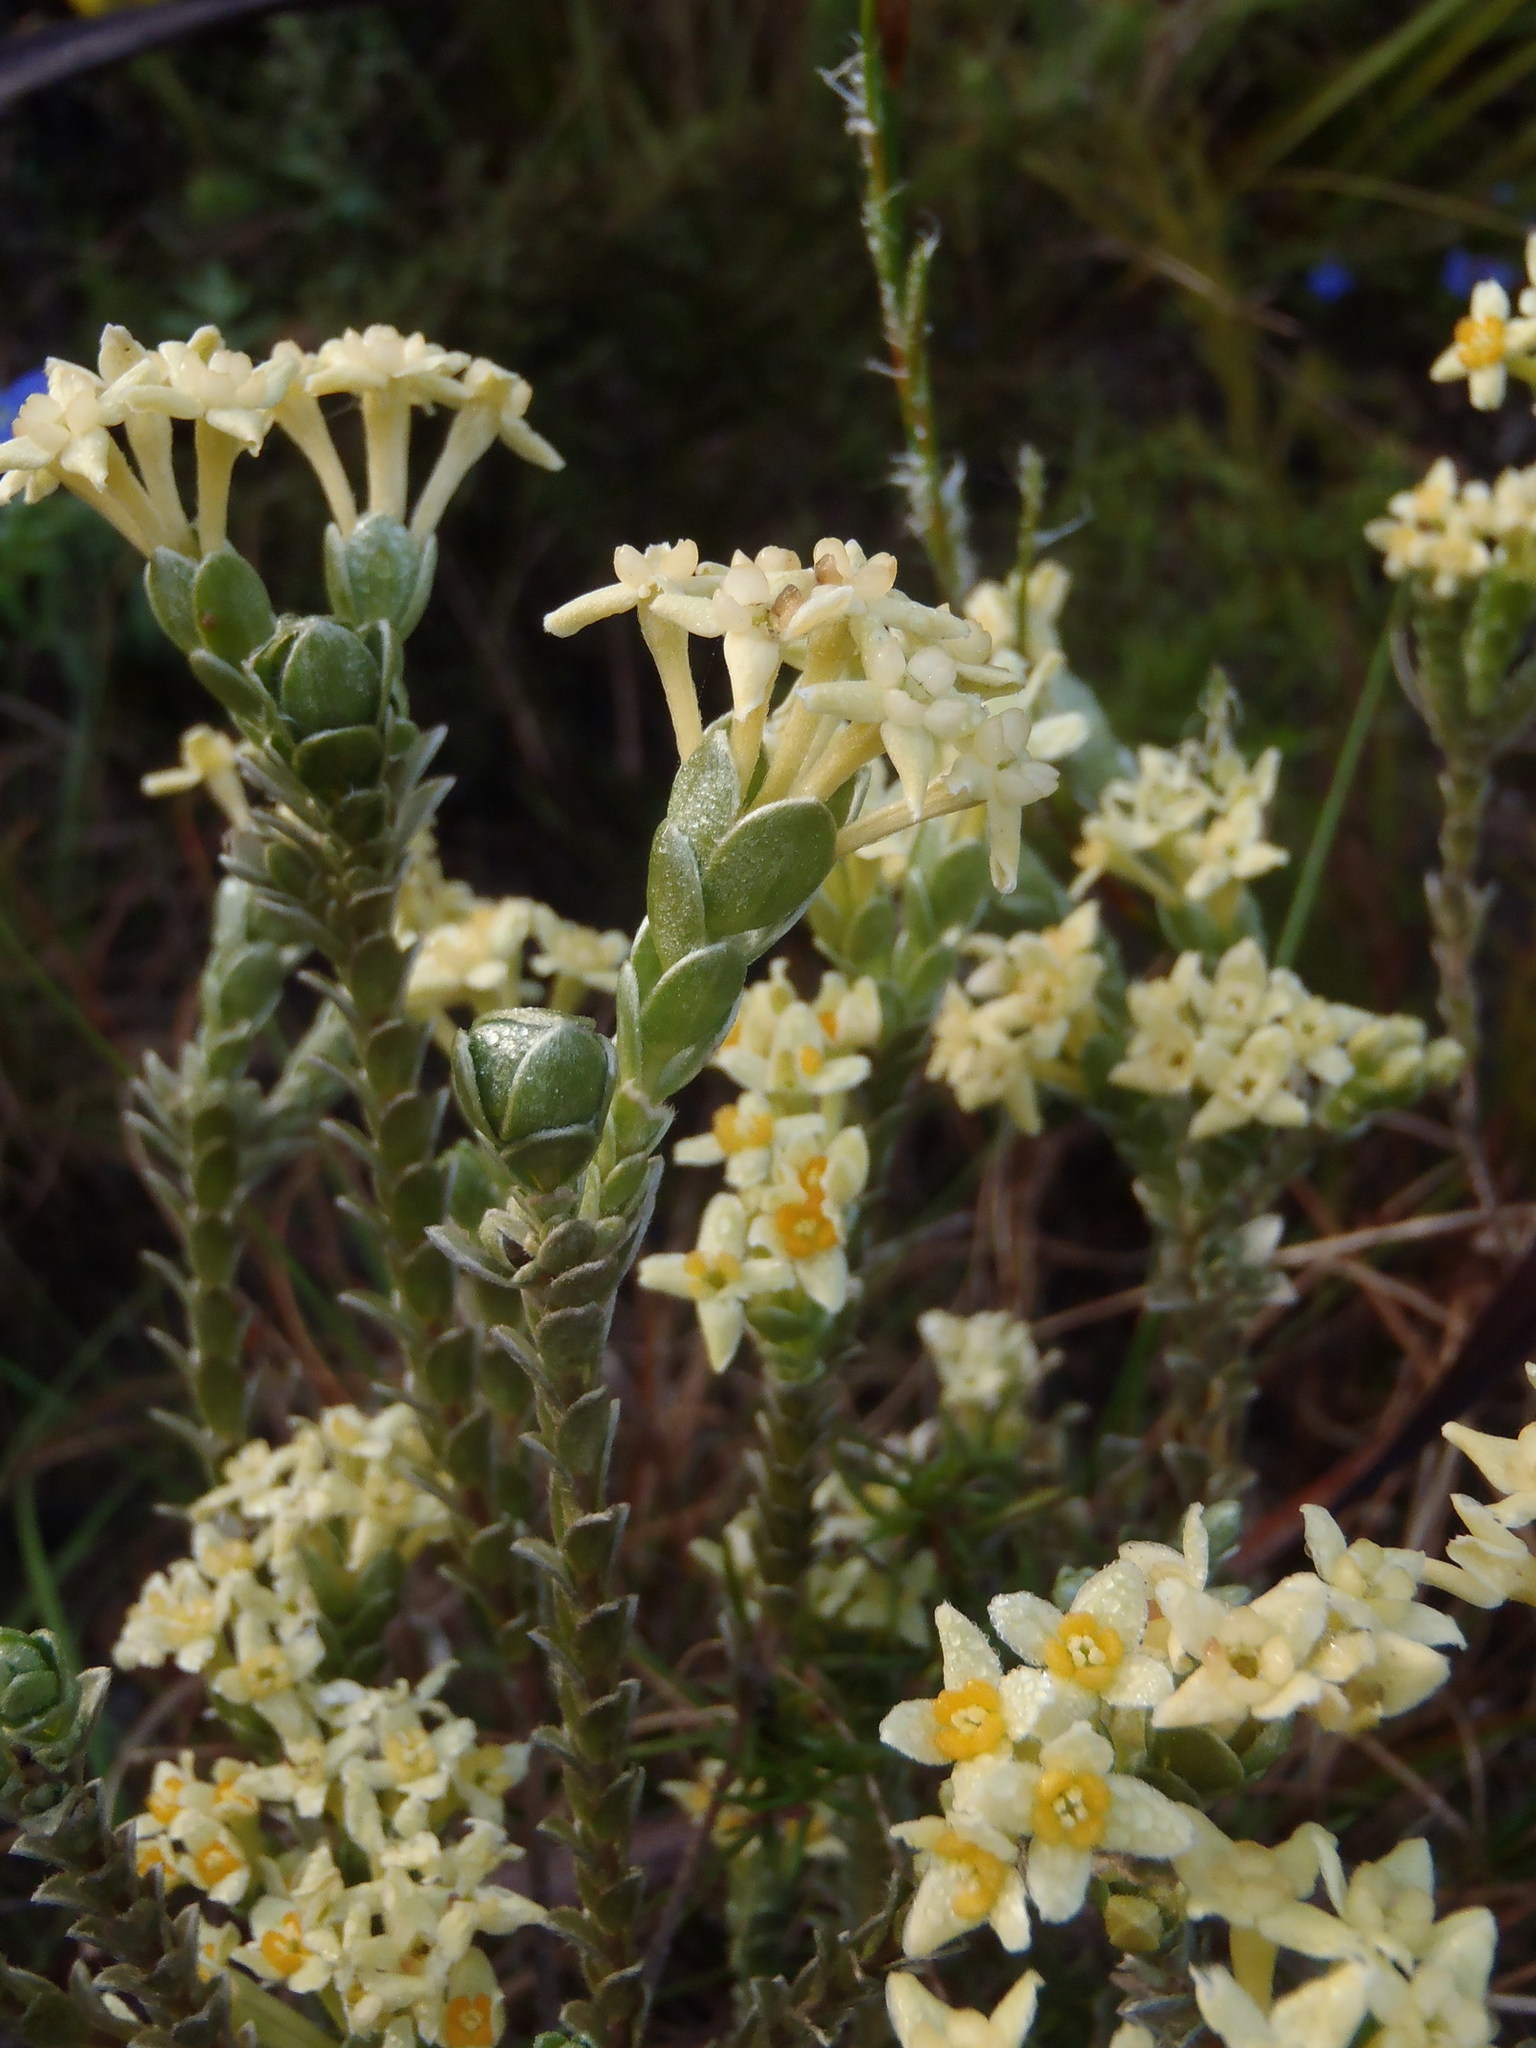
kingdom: Plantae
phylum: Tracheophyta
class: Magnoliopsida
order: Malvales
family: Thymelaeaceae
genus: Gnidia
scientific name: Gnidia chrysophylla
